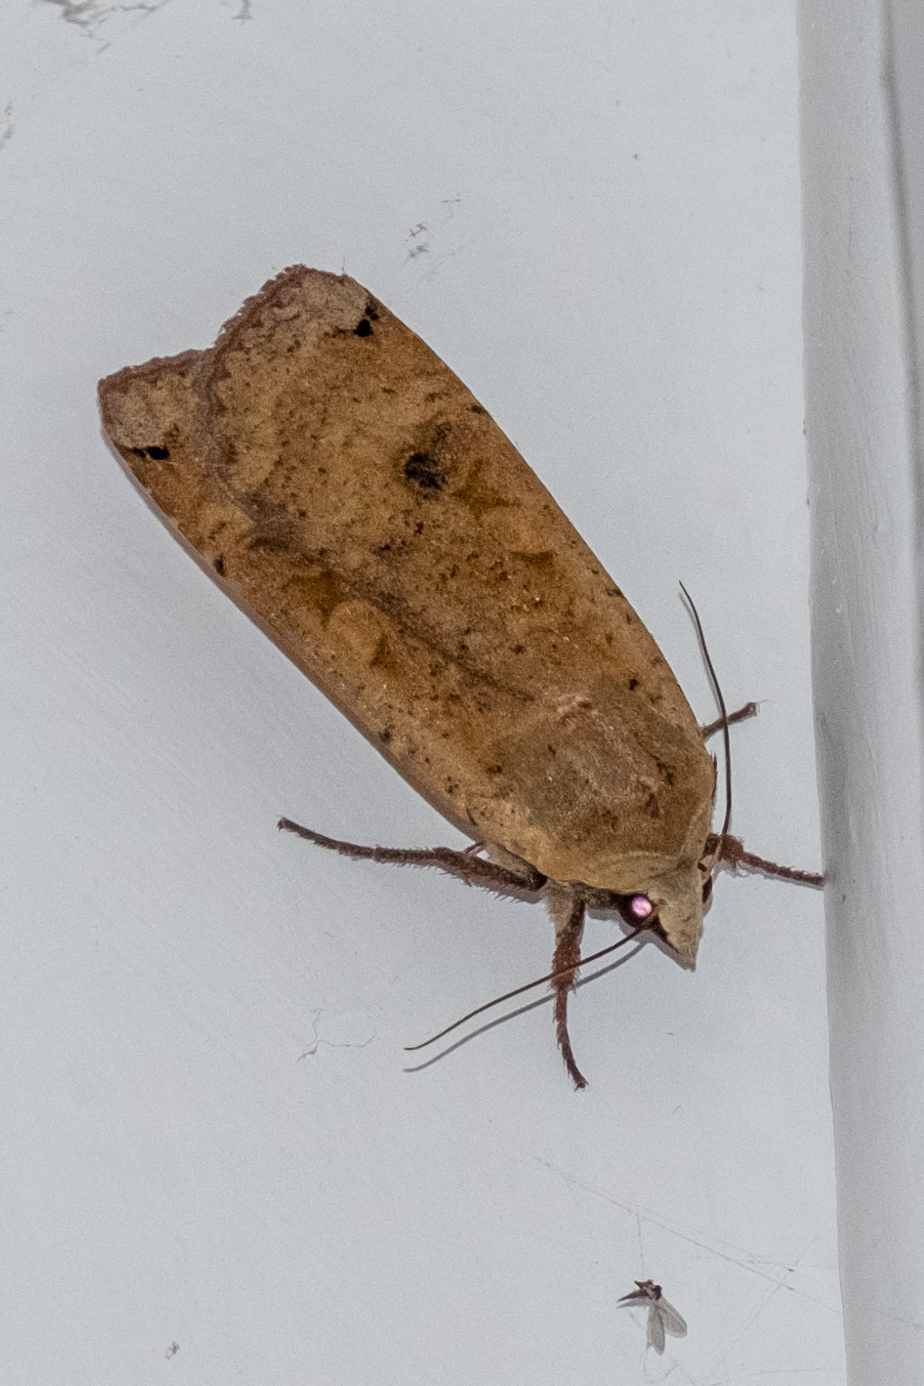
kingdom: Animalia
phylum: Arthropoda
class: Insecta
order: Lepidoptera
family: Noctuidae
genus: Noctua
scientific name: Noctua pronuba
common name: Large yellow underwing
